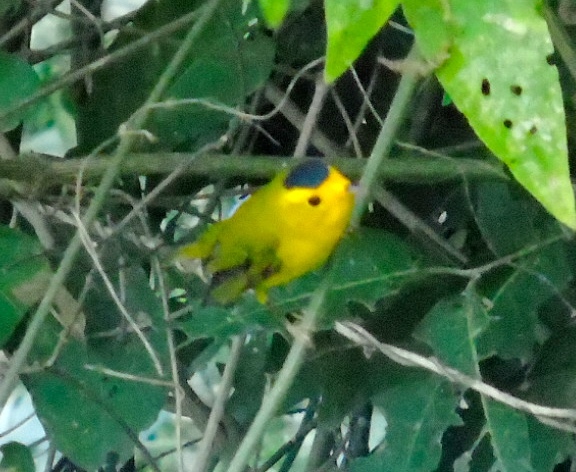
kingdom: Animalia
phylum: Chordata
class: Aves
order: Passeriformes
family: Parulidae
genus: Cardellina
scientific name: Cardellina pusilla
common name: Wilson's warbler
